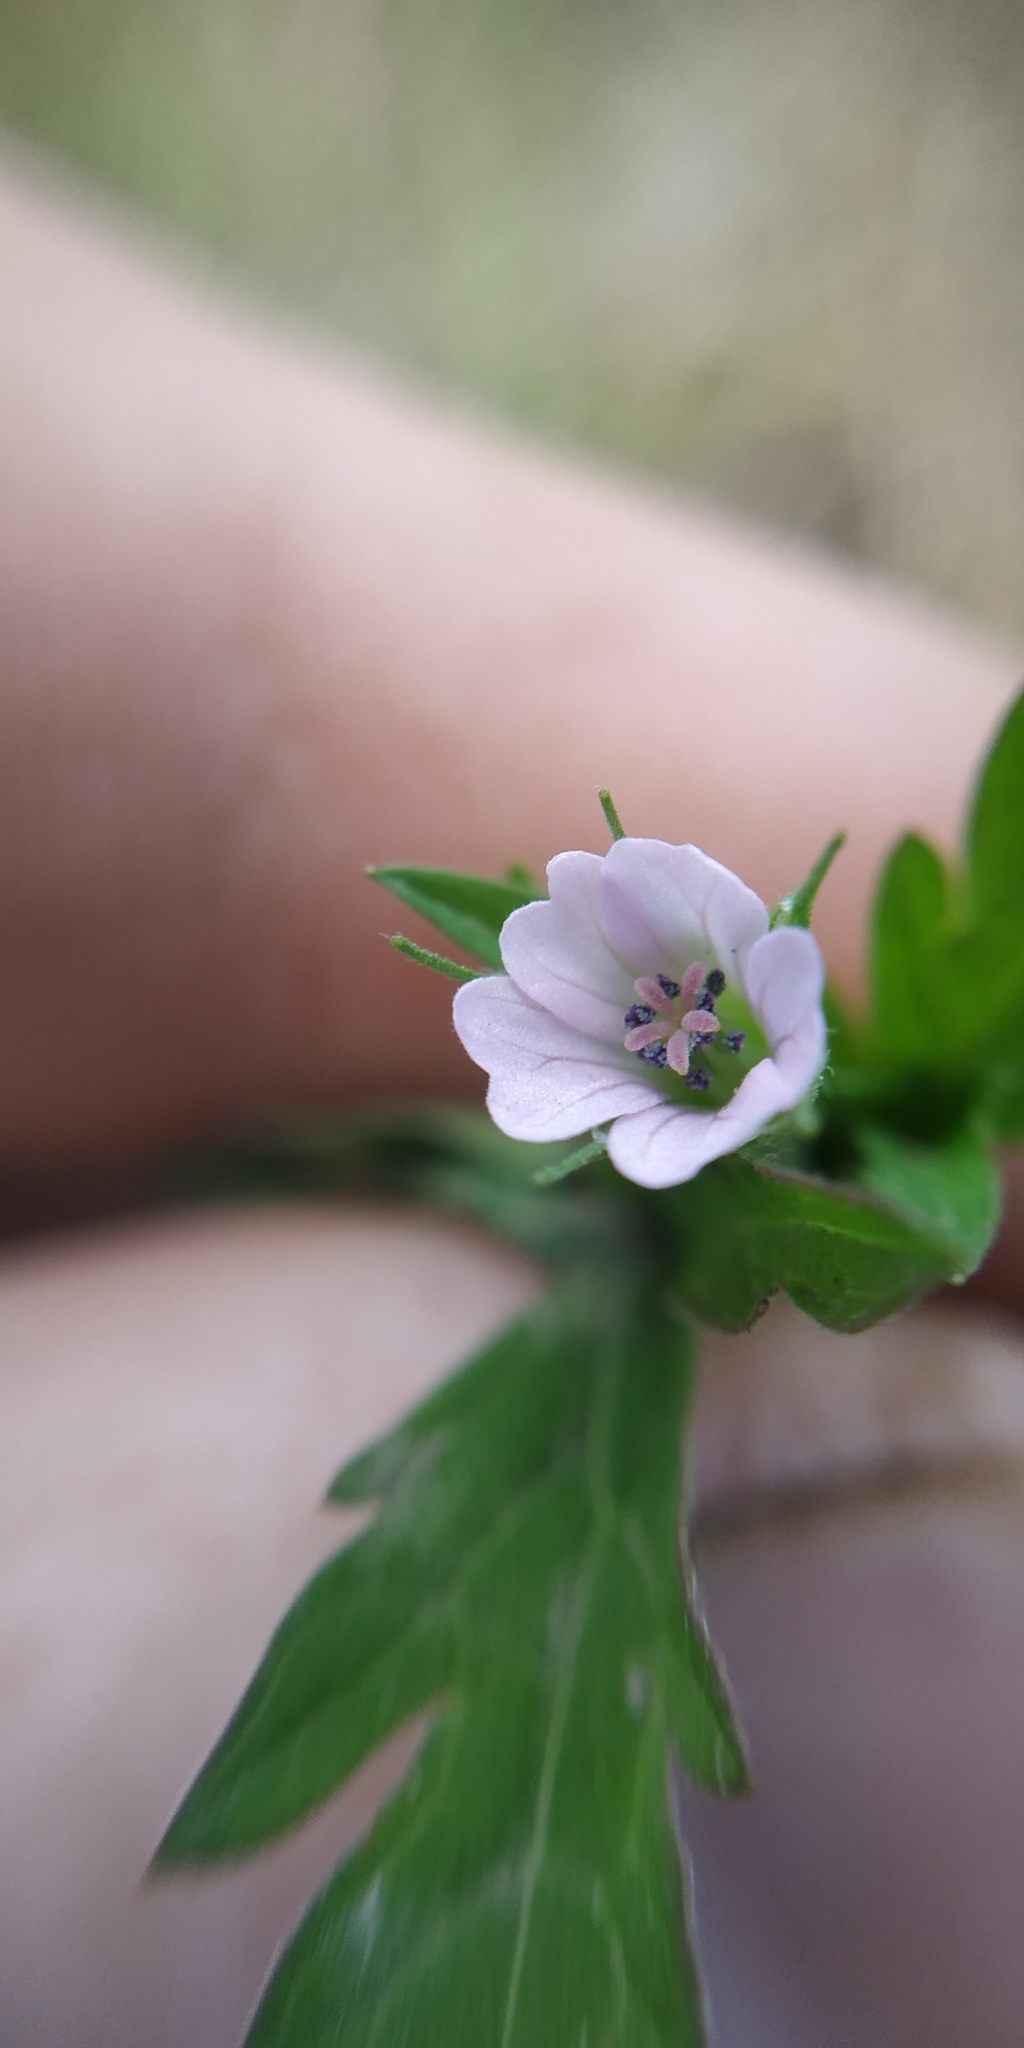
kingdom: Plantae
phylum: Tracheophyta
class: Magnoliopsida
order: Geraniales
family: Geraniaceae
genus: Geranium
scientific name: Geranium sibiricum
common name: Siberian crane's-bill
